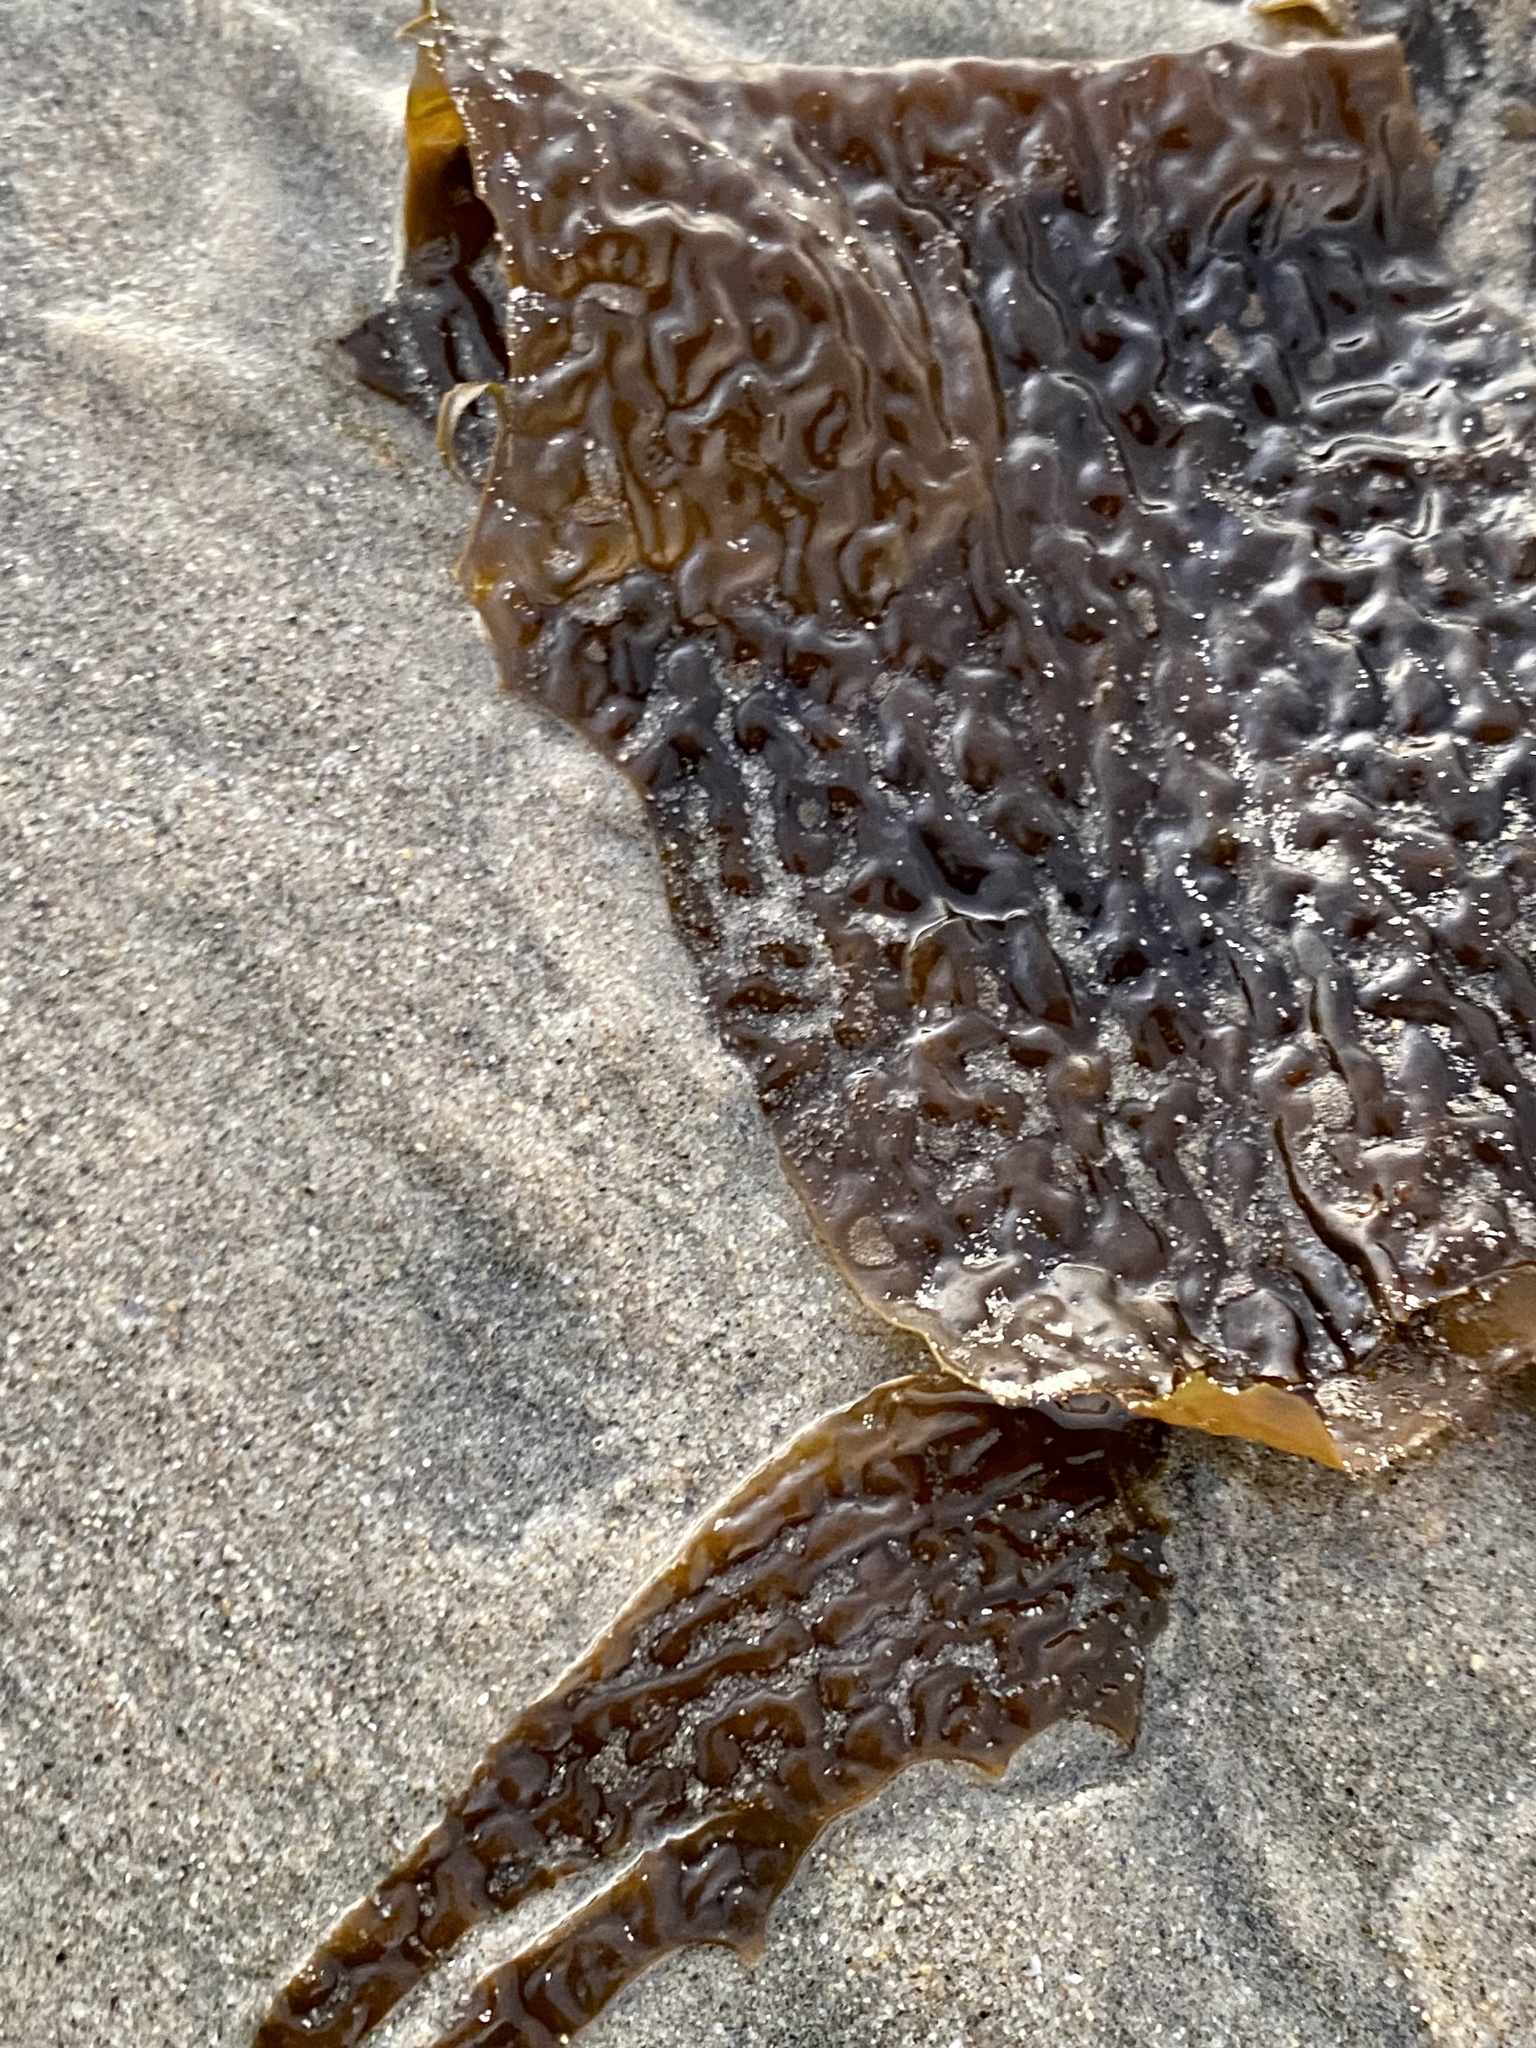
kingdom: Chromista
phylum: Ochrophyta
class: Phaeophyceae
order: Laminariales
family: Lessoniaceae
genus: Eisenia
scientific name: Eisenia arborea
